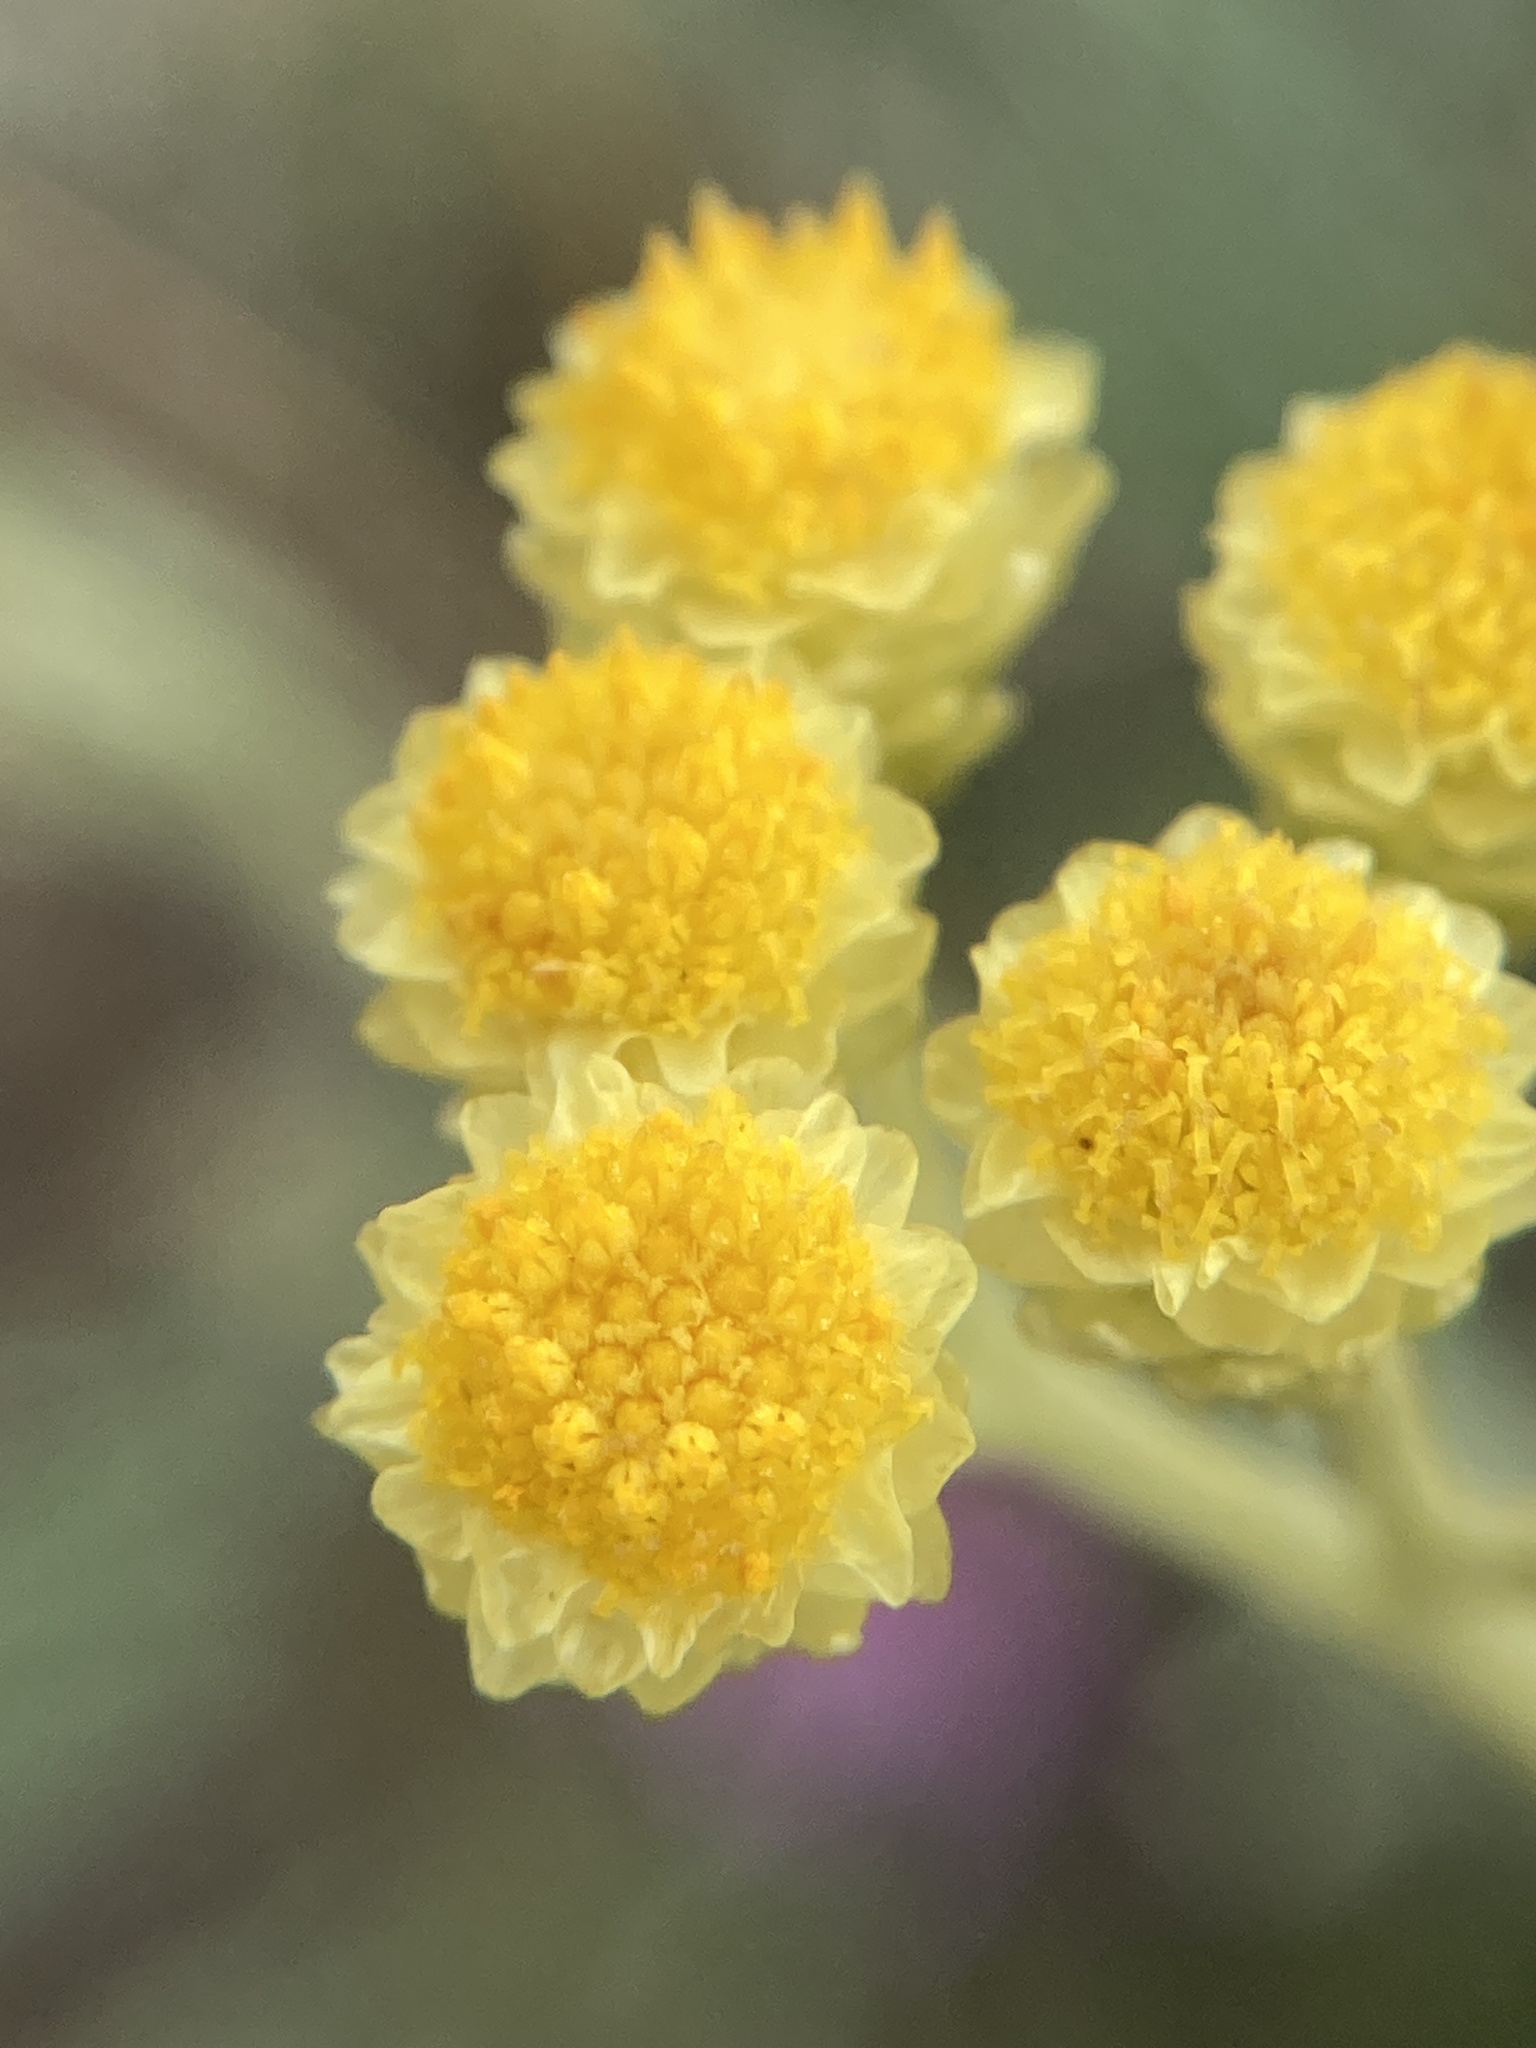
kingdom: Plantae
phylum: Tracheophyta
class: Magnoliopsida
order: Asterales
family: Asteraceae
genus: Helichrysum
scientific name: Helichrysum arenarium
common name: Strawflower
